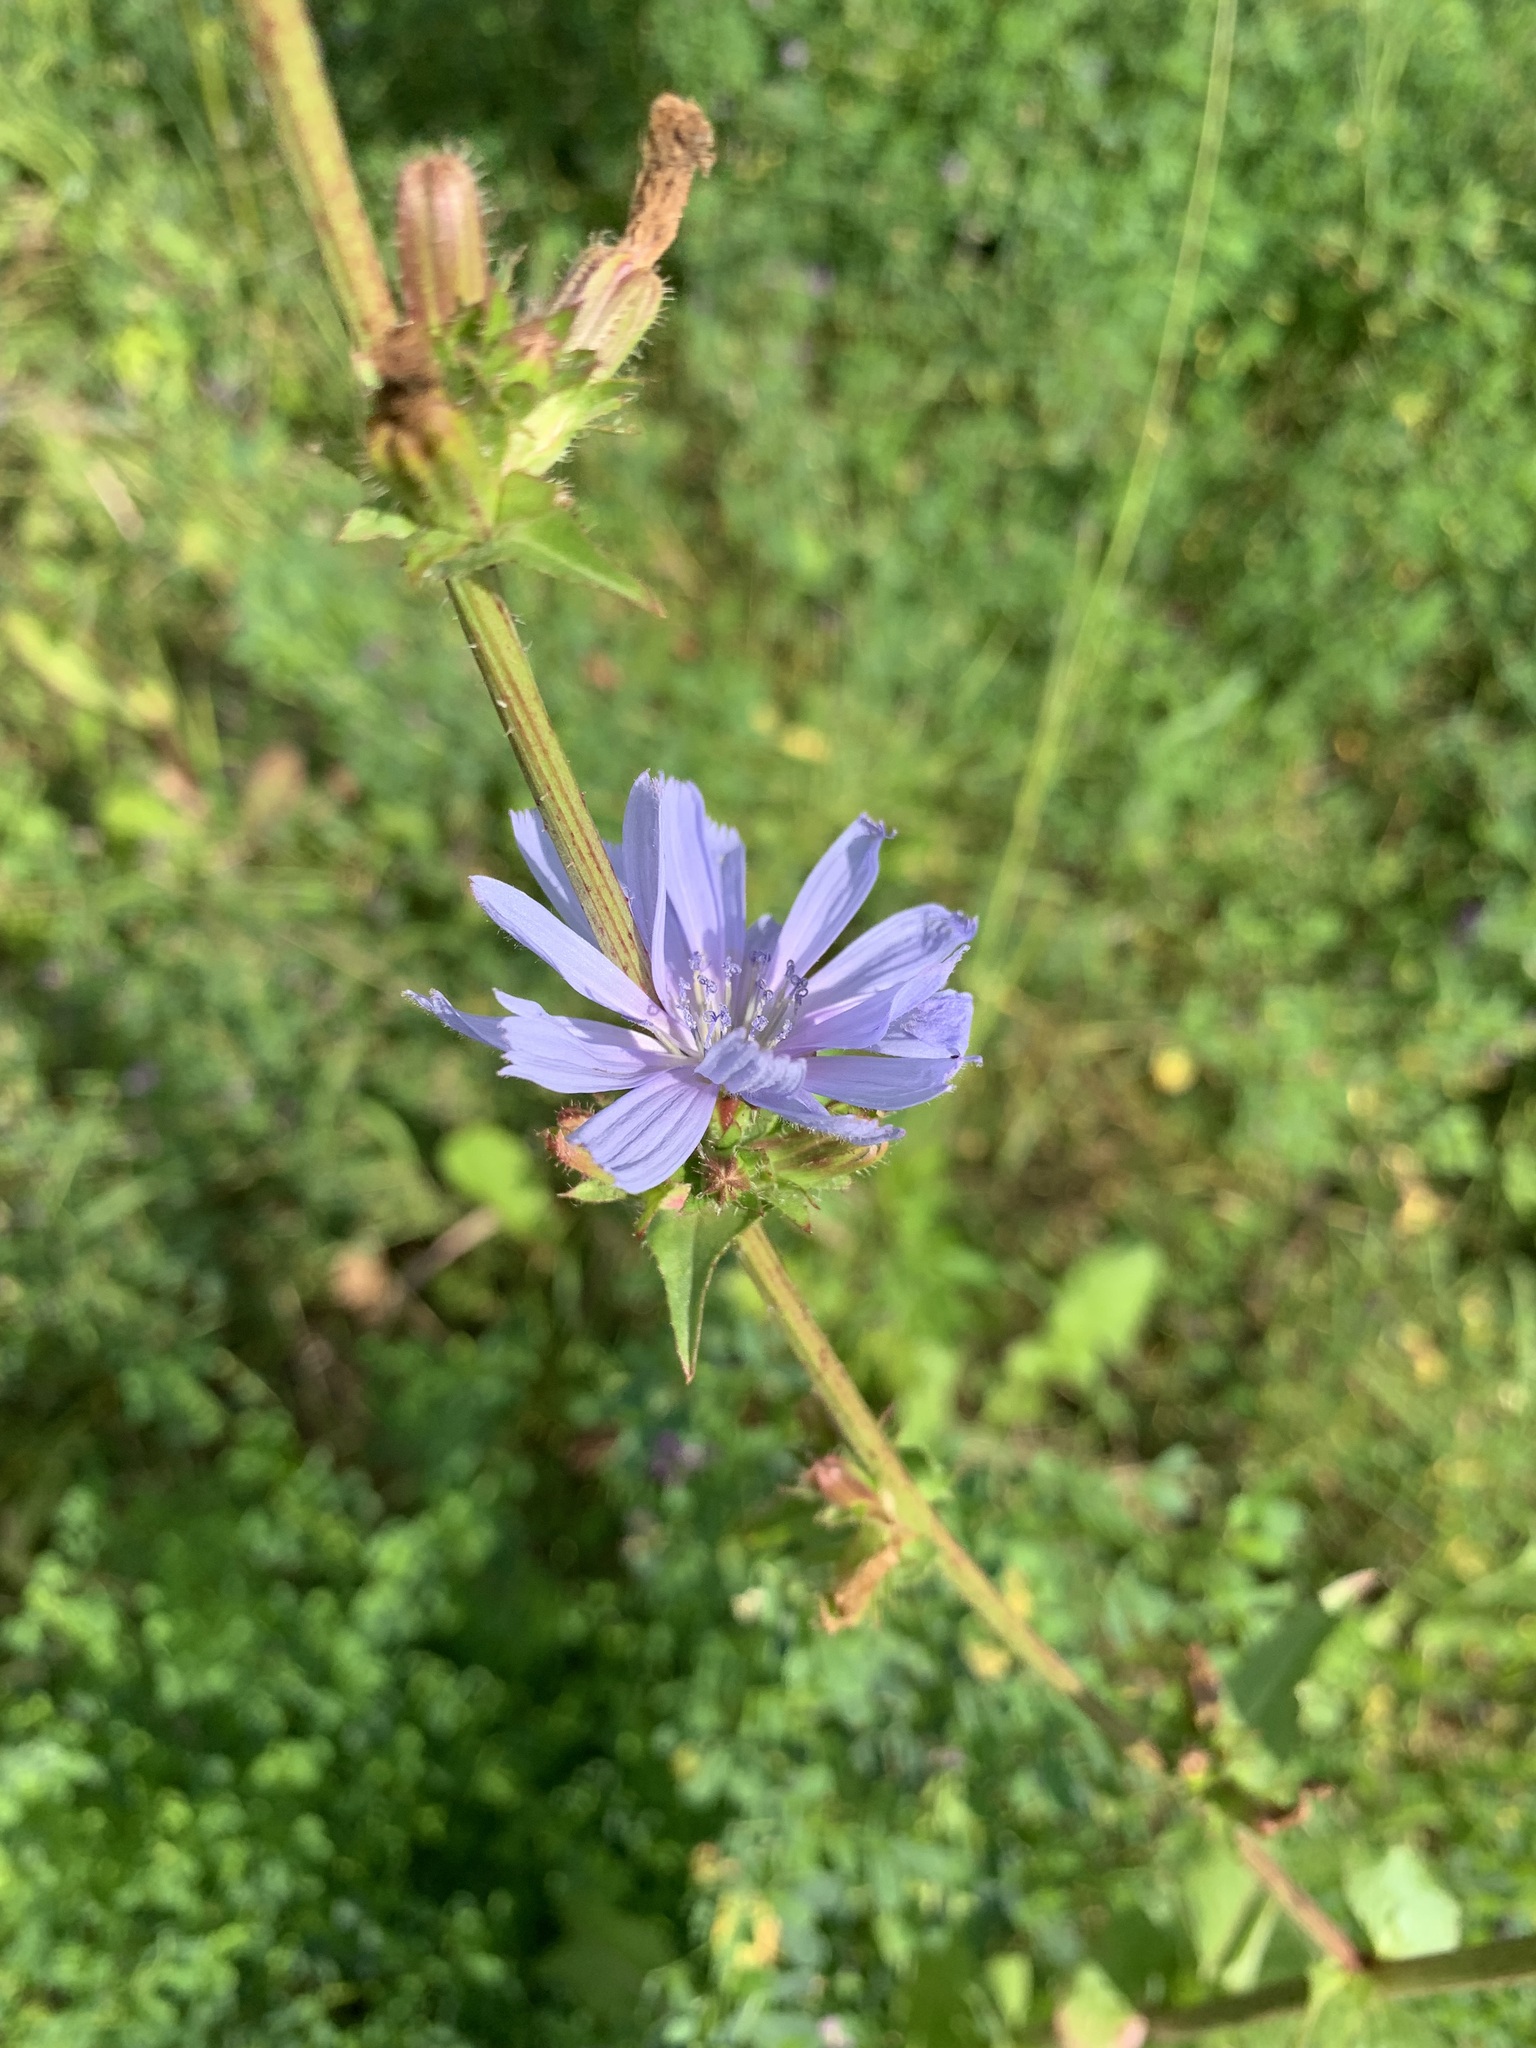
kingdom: Plantae
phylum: Tracheophyta
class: Magnoliopsida
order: Asterales
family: Asteraceae
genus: Cichorium
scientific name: Cichorium intybus
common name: Chicory
